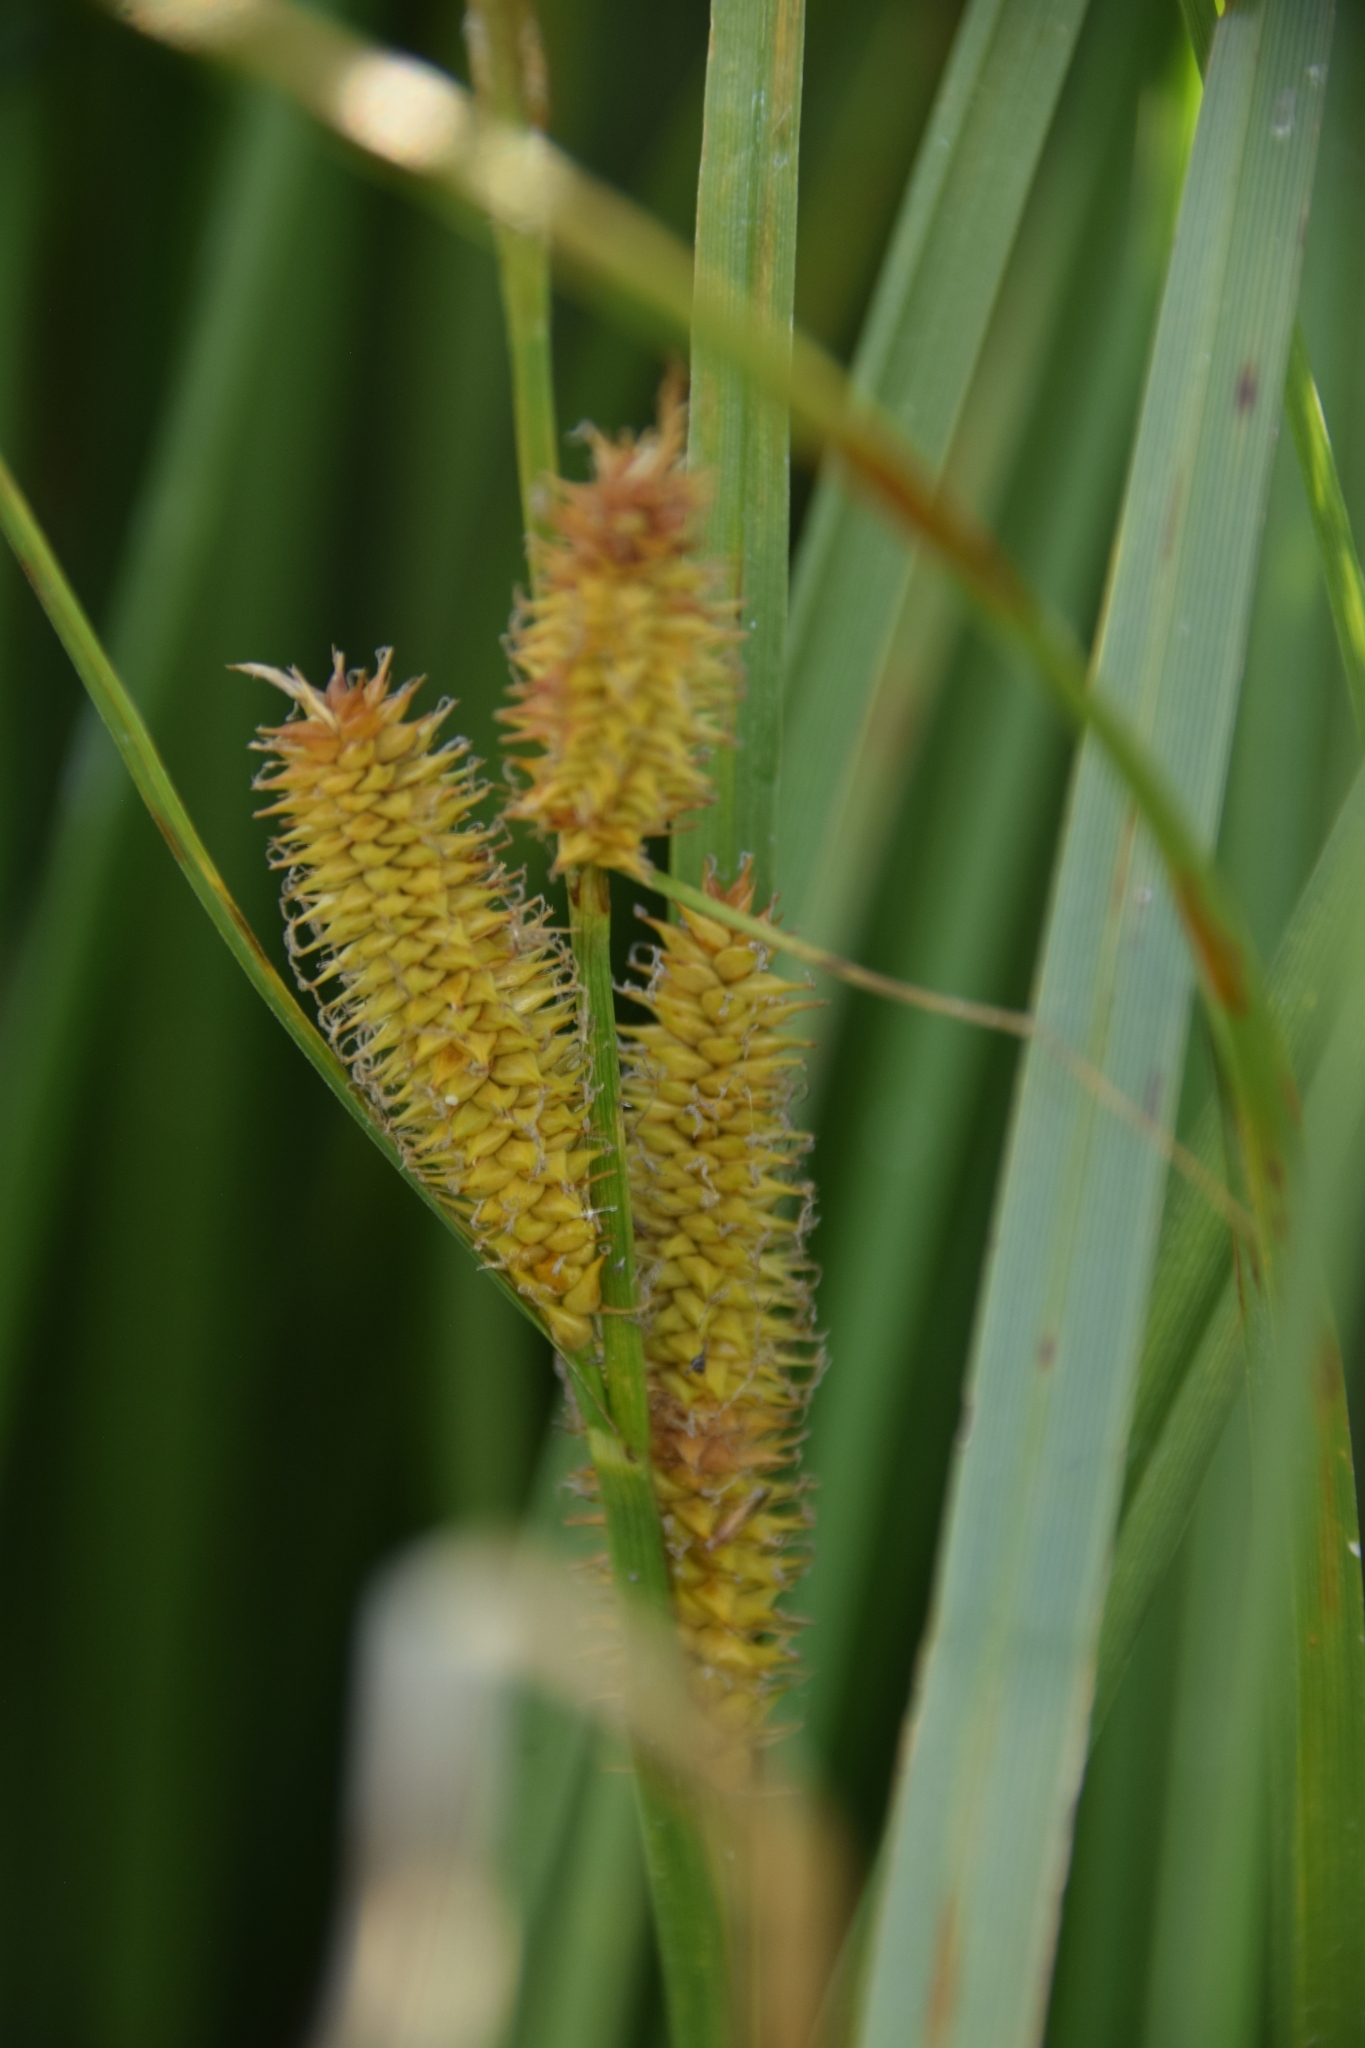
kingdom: Plantae
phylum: Tracheophyta
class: Liliopsida
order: Poales
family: Cyperaceae
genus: Carex
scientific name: Carex utriculata
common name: Beaked sedge
